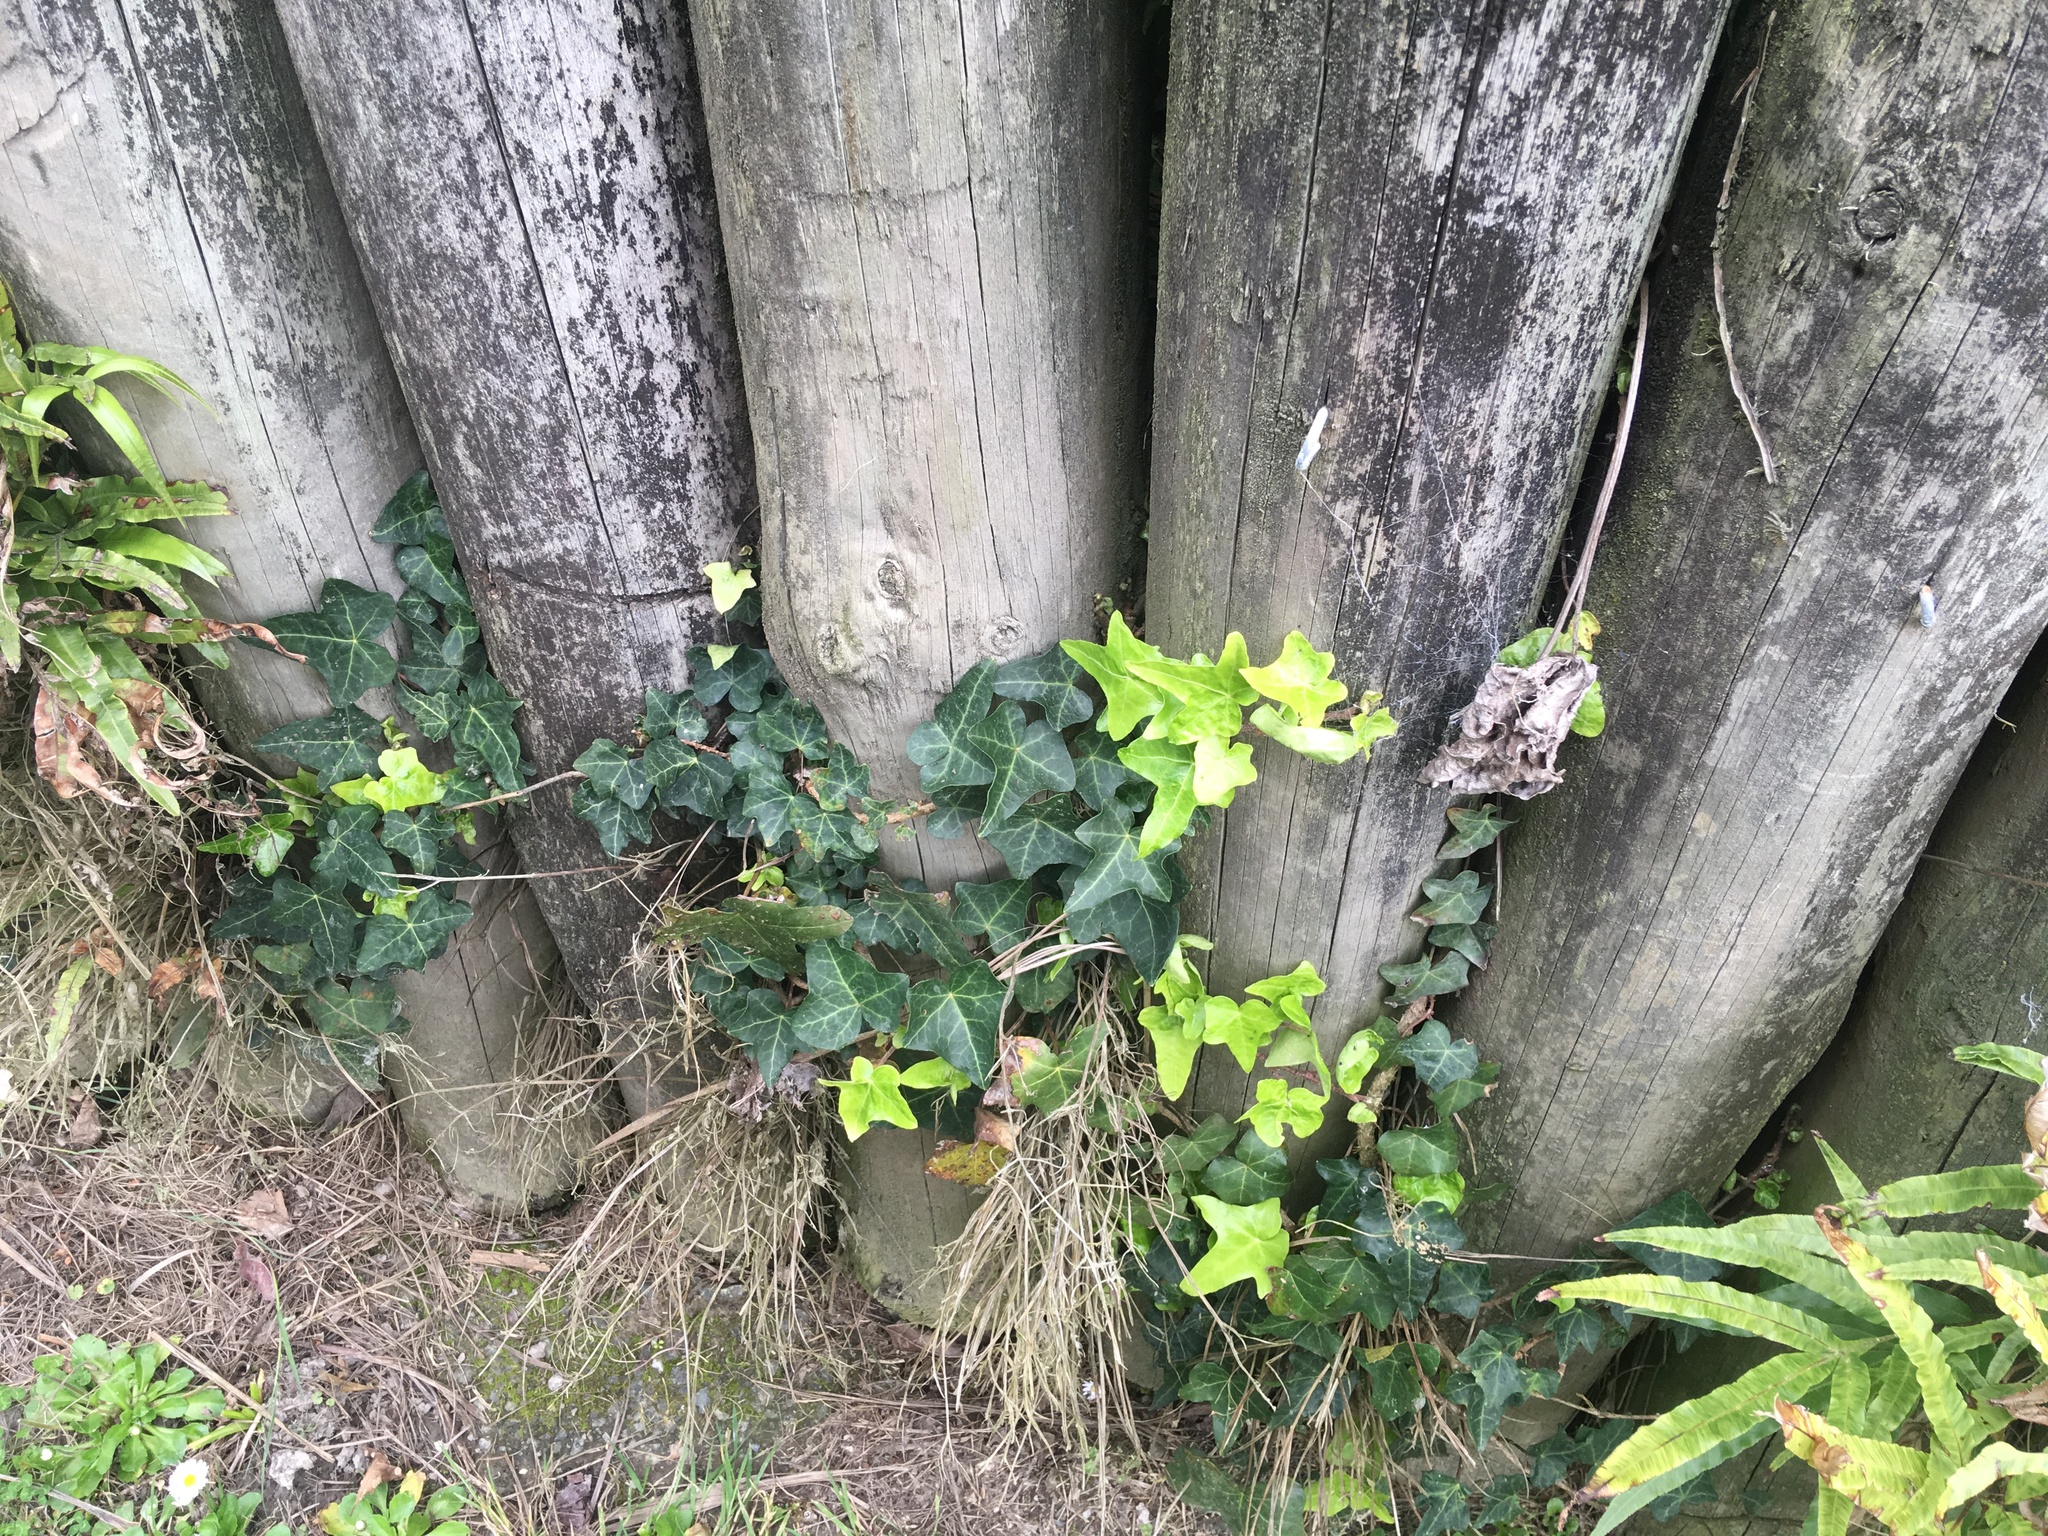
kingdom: Plantae
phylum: Tracheophyta
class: Magnoliopsida
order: Apiales
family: Araliaceae
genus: Hedera
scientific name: Hedera helix
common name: Ivy
